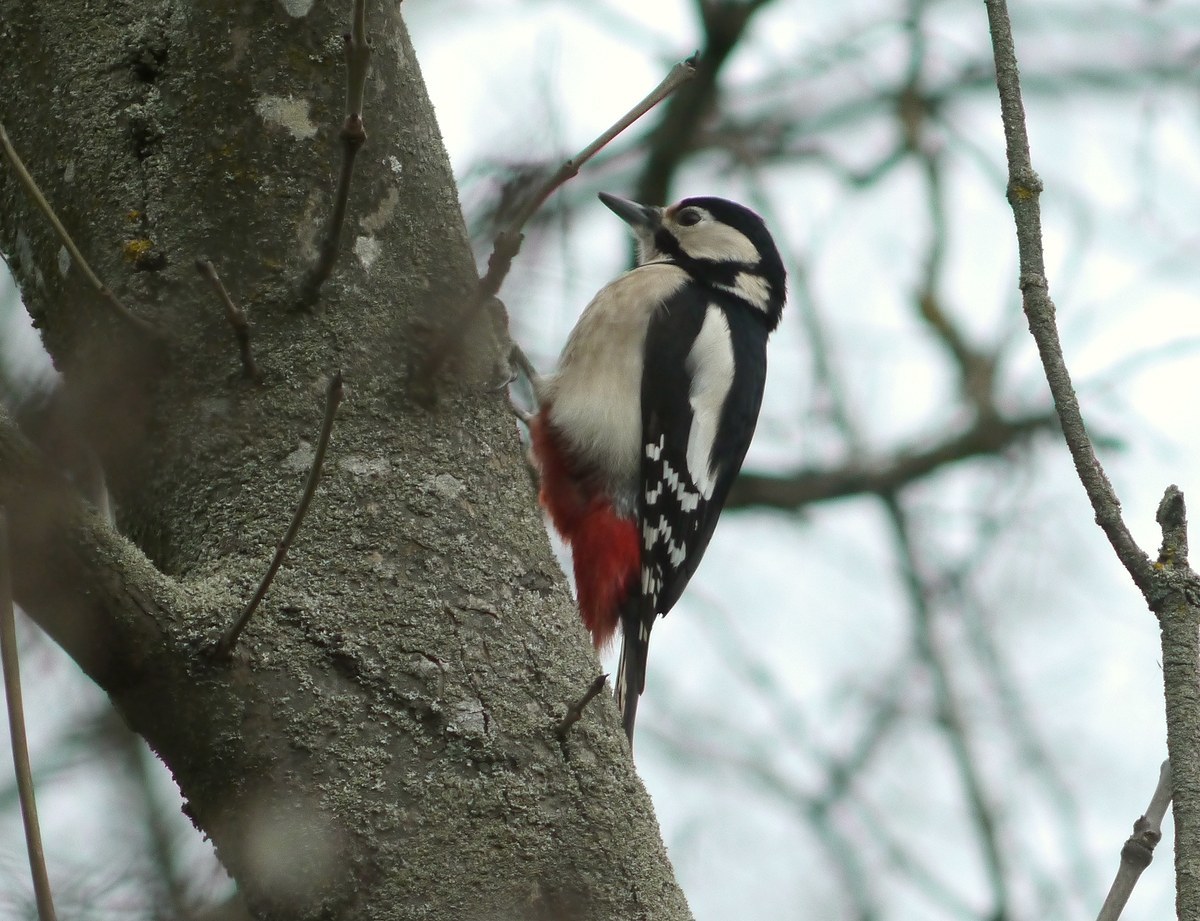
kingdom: Animalia
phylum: Chordata
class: Aves
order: Piciformes
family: Picidae
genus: Dendrocopos
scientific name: Dendrocopos major
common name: Great spotted woodpecker
